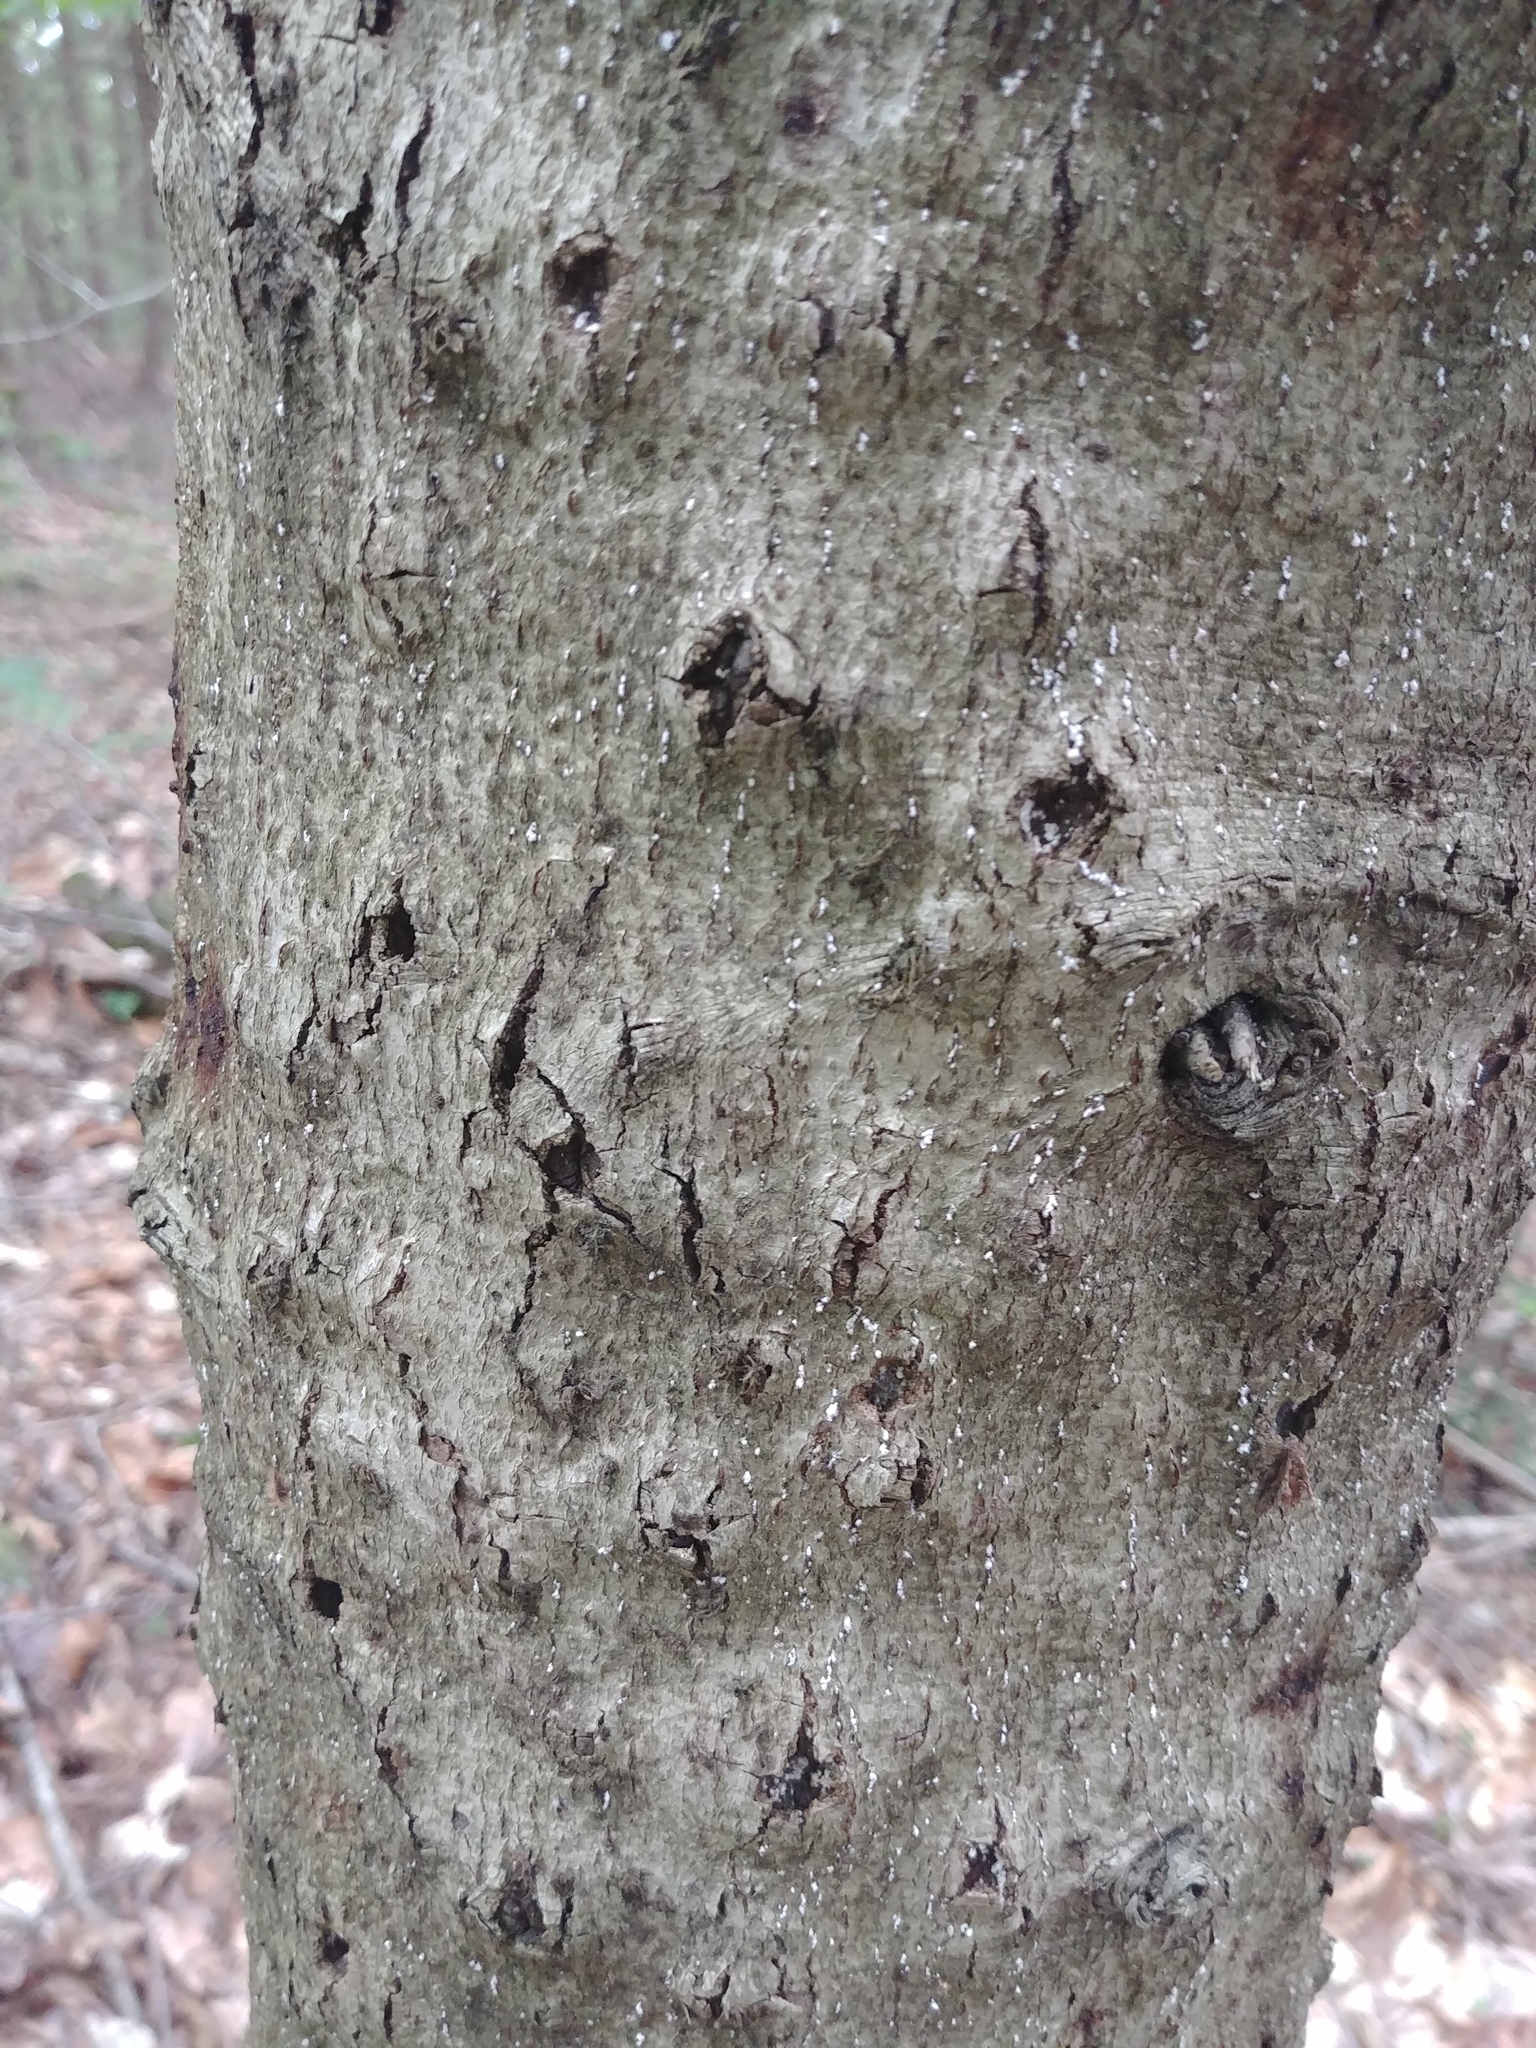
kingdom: Animalia
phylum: Arthropoda
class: Insecta
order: Hemiptera
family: Eriococcidae
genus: Cryptococcus
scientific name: Cryptococcus fagisuga
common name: Beech scale
